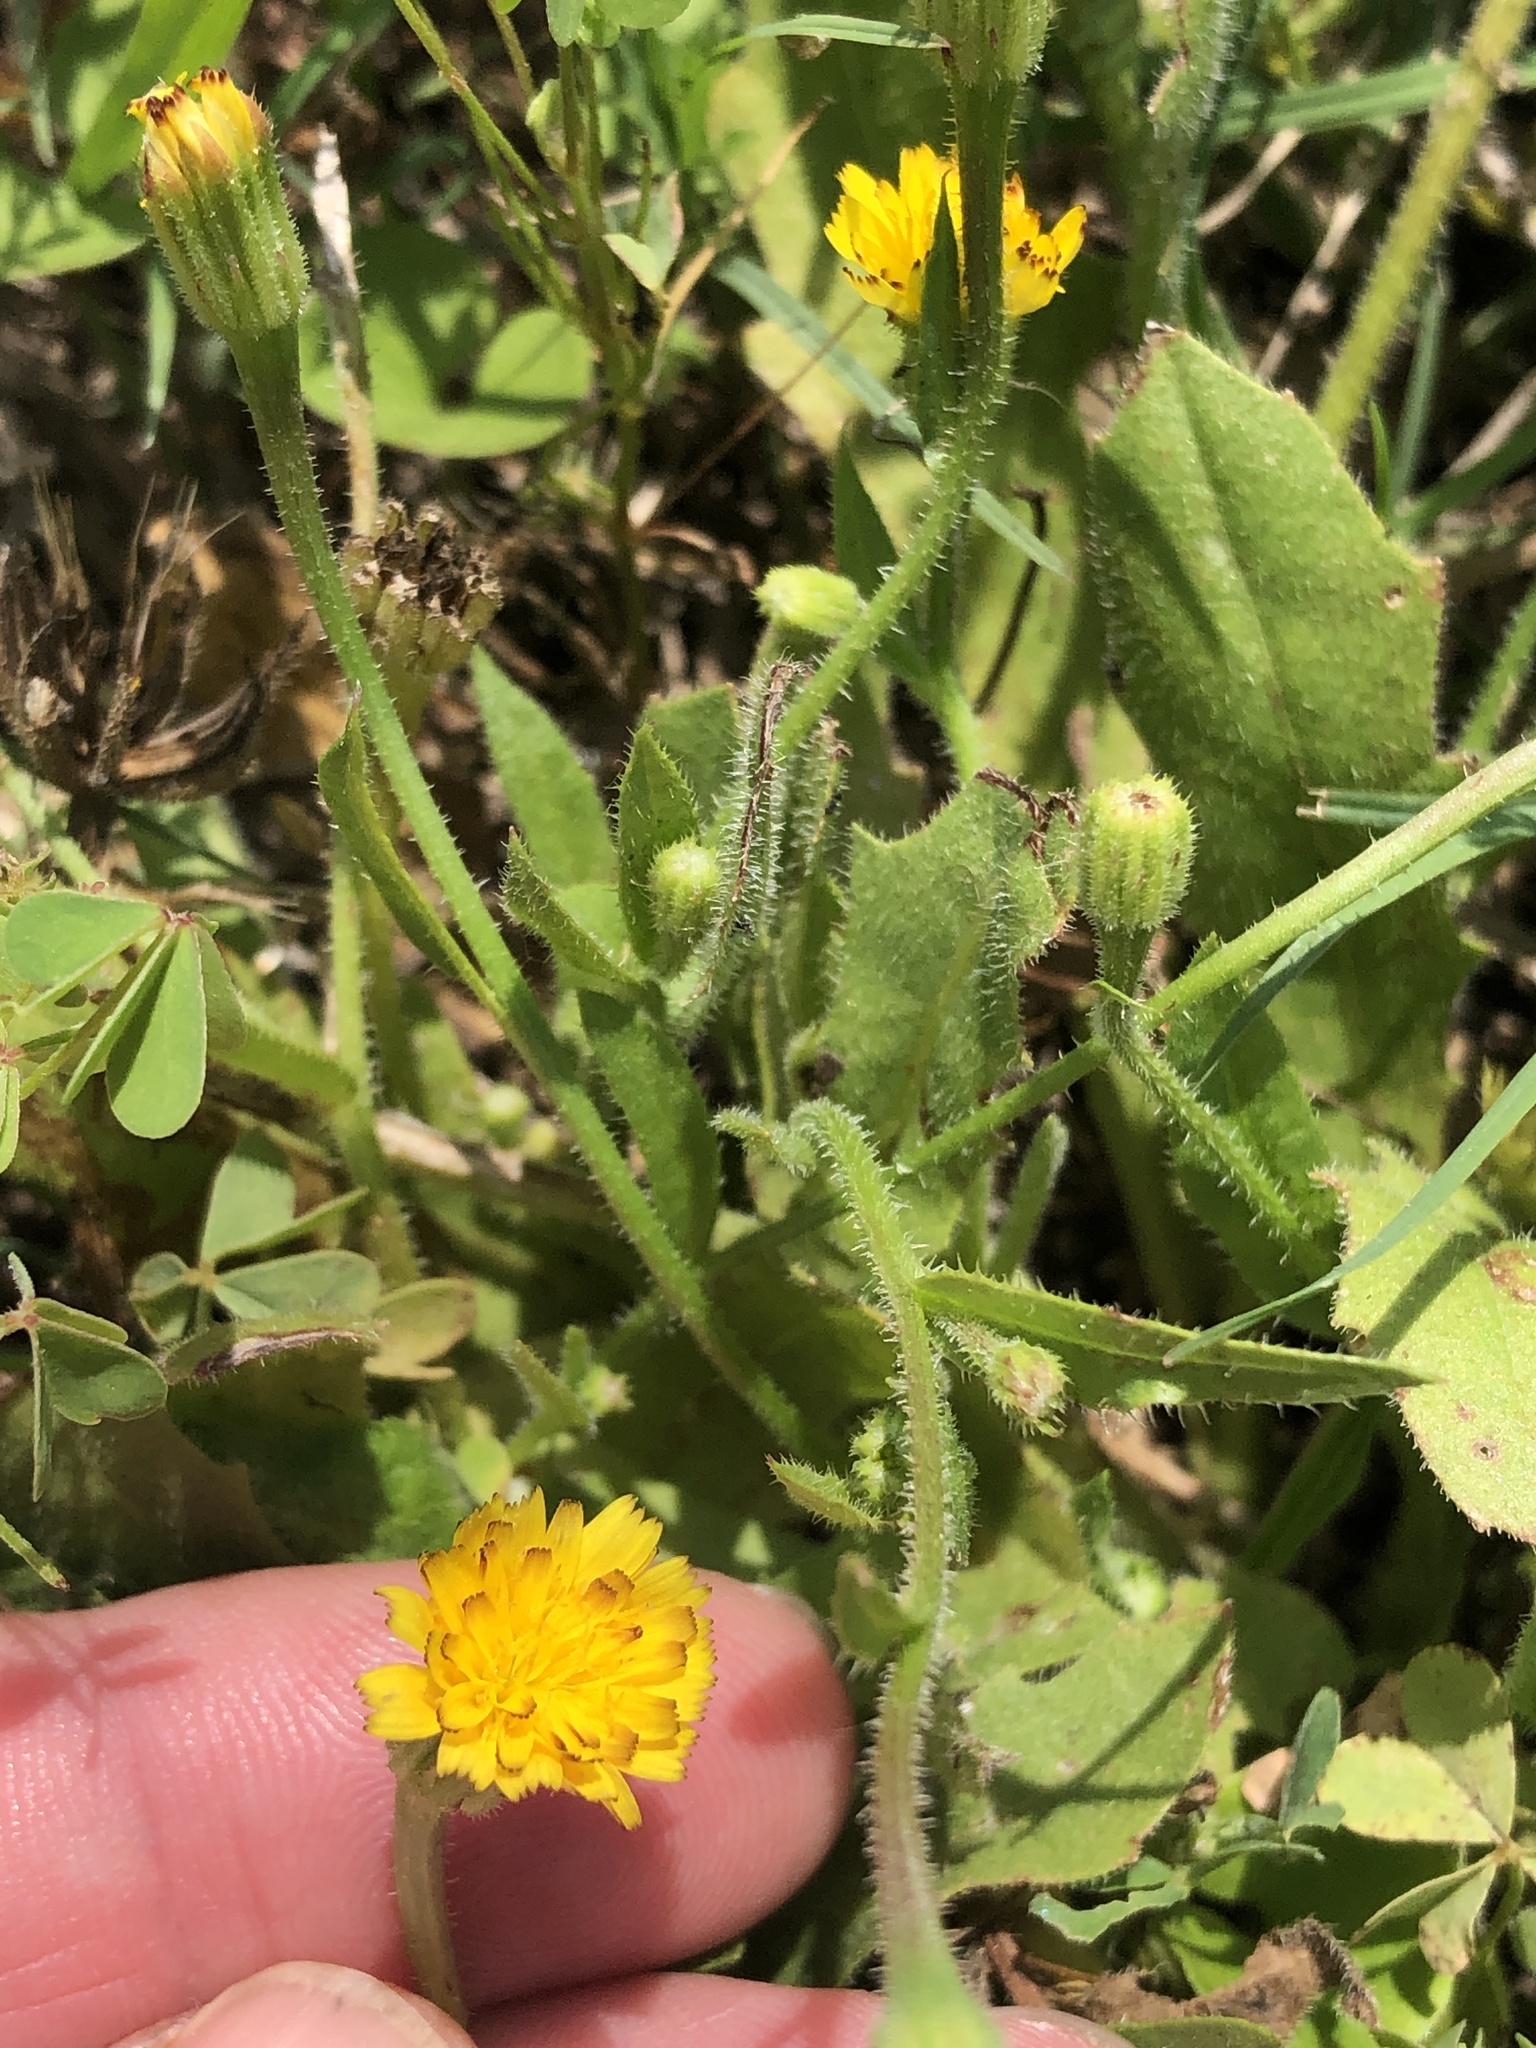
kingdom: Plantae
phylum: Tracheophyta
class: Magnoliopsida
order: Asterales
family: Asteraceae
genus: Hedypnois
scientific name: Hedypnois rhagadioloides
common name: Cretan weed
